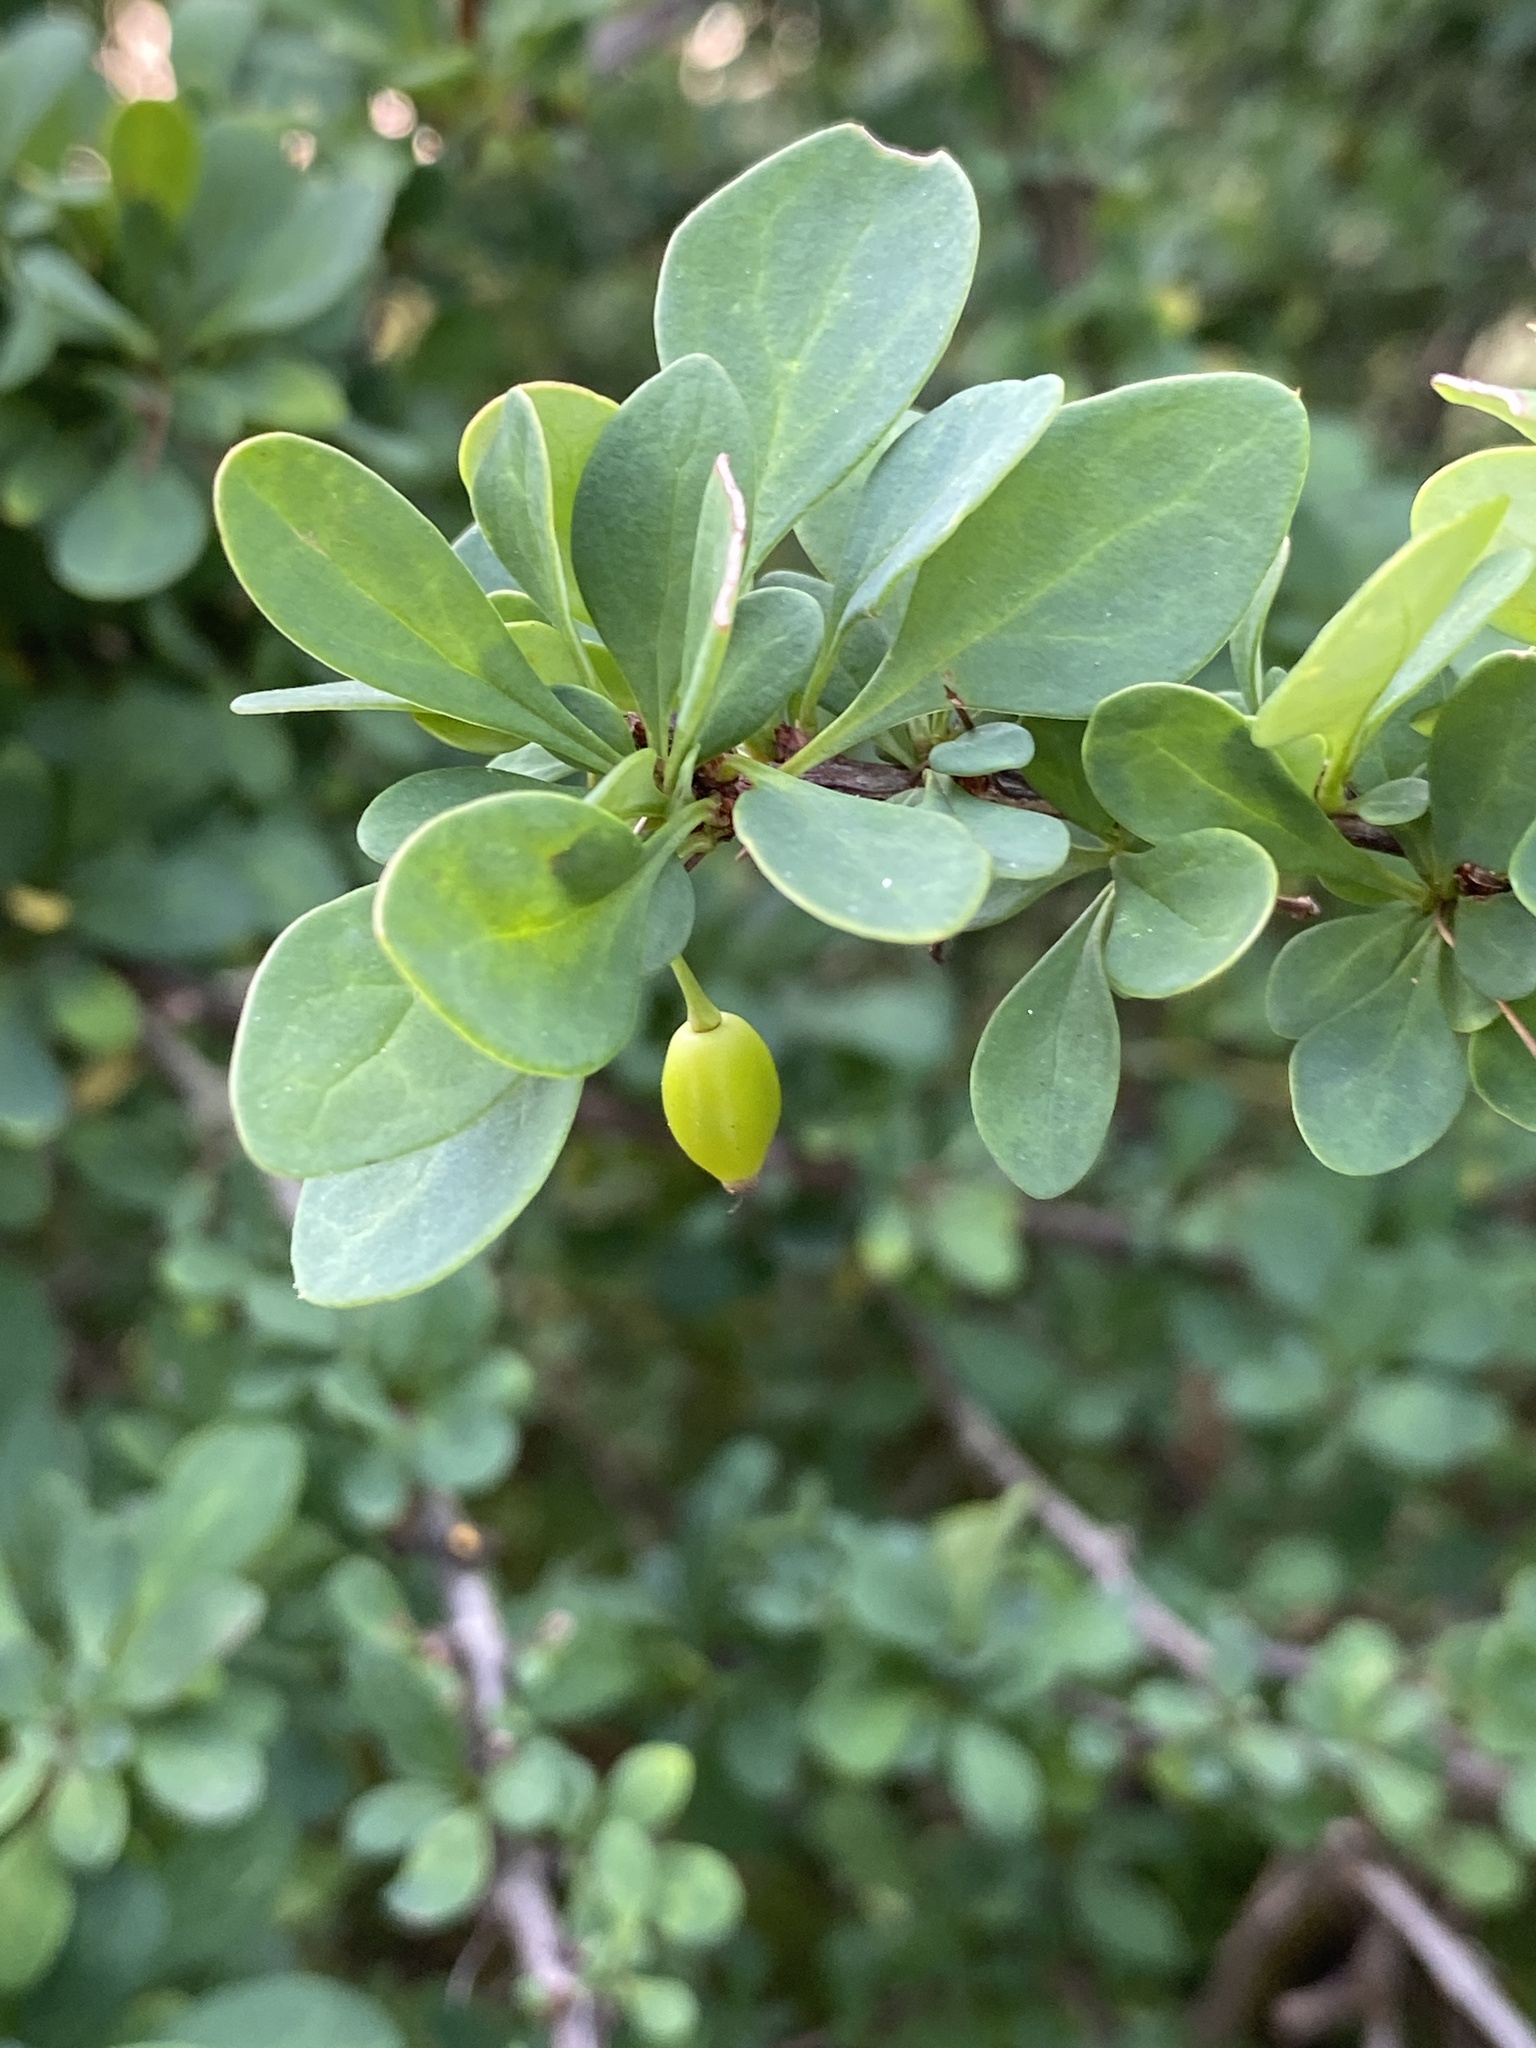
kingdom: Plantae
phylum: Tracheophyta
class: Magnoliopsida
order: Ranunculales
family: Berberidaceae
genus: Berberis
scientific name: Berberis thunbergii
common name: Japanese barberry
